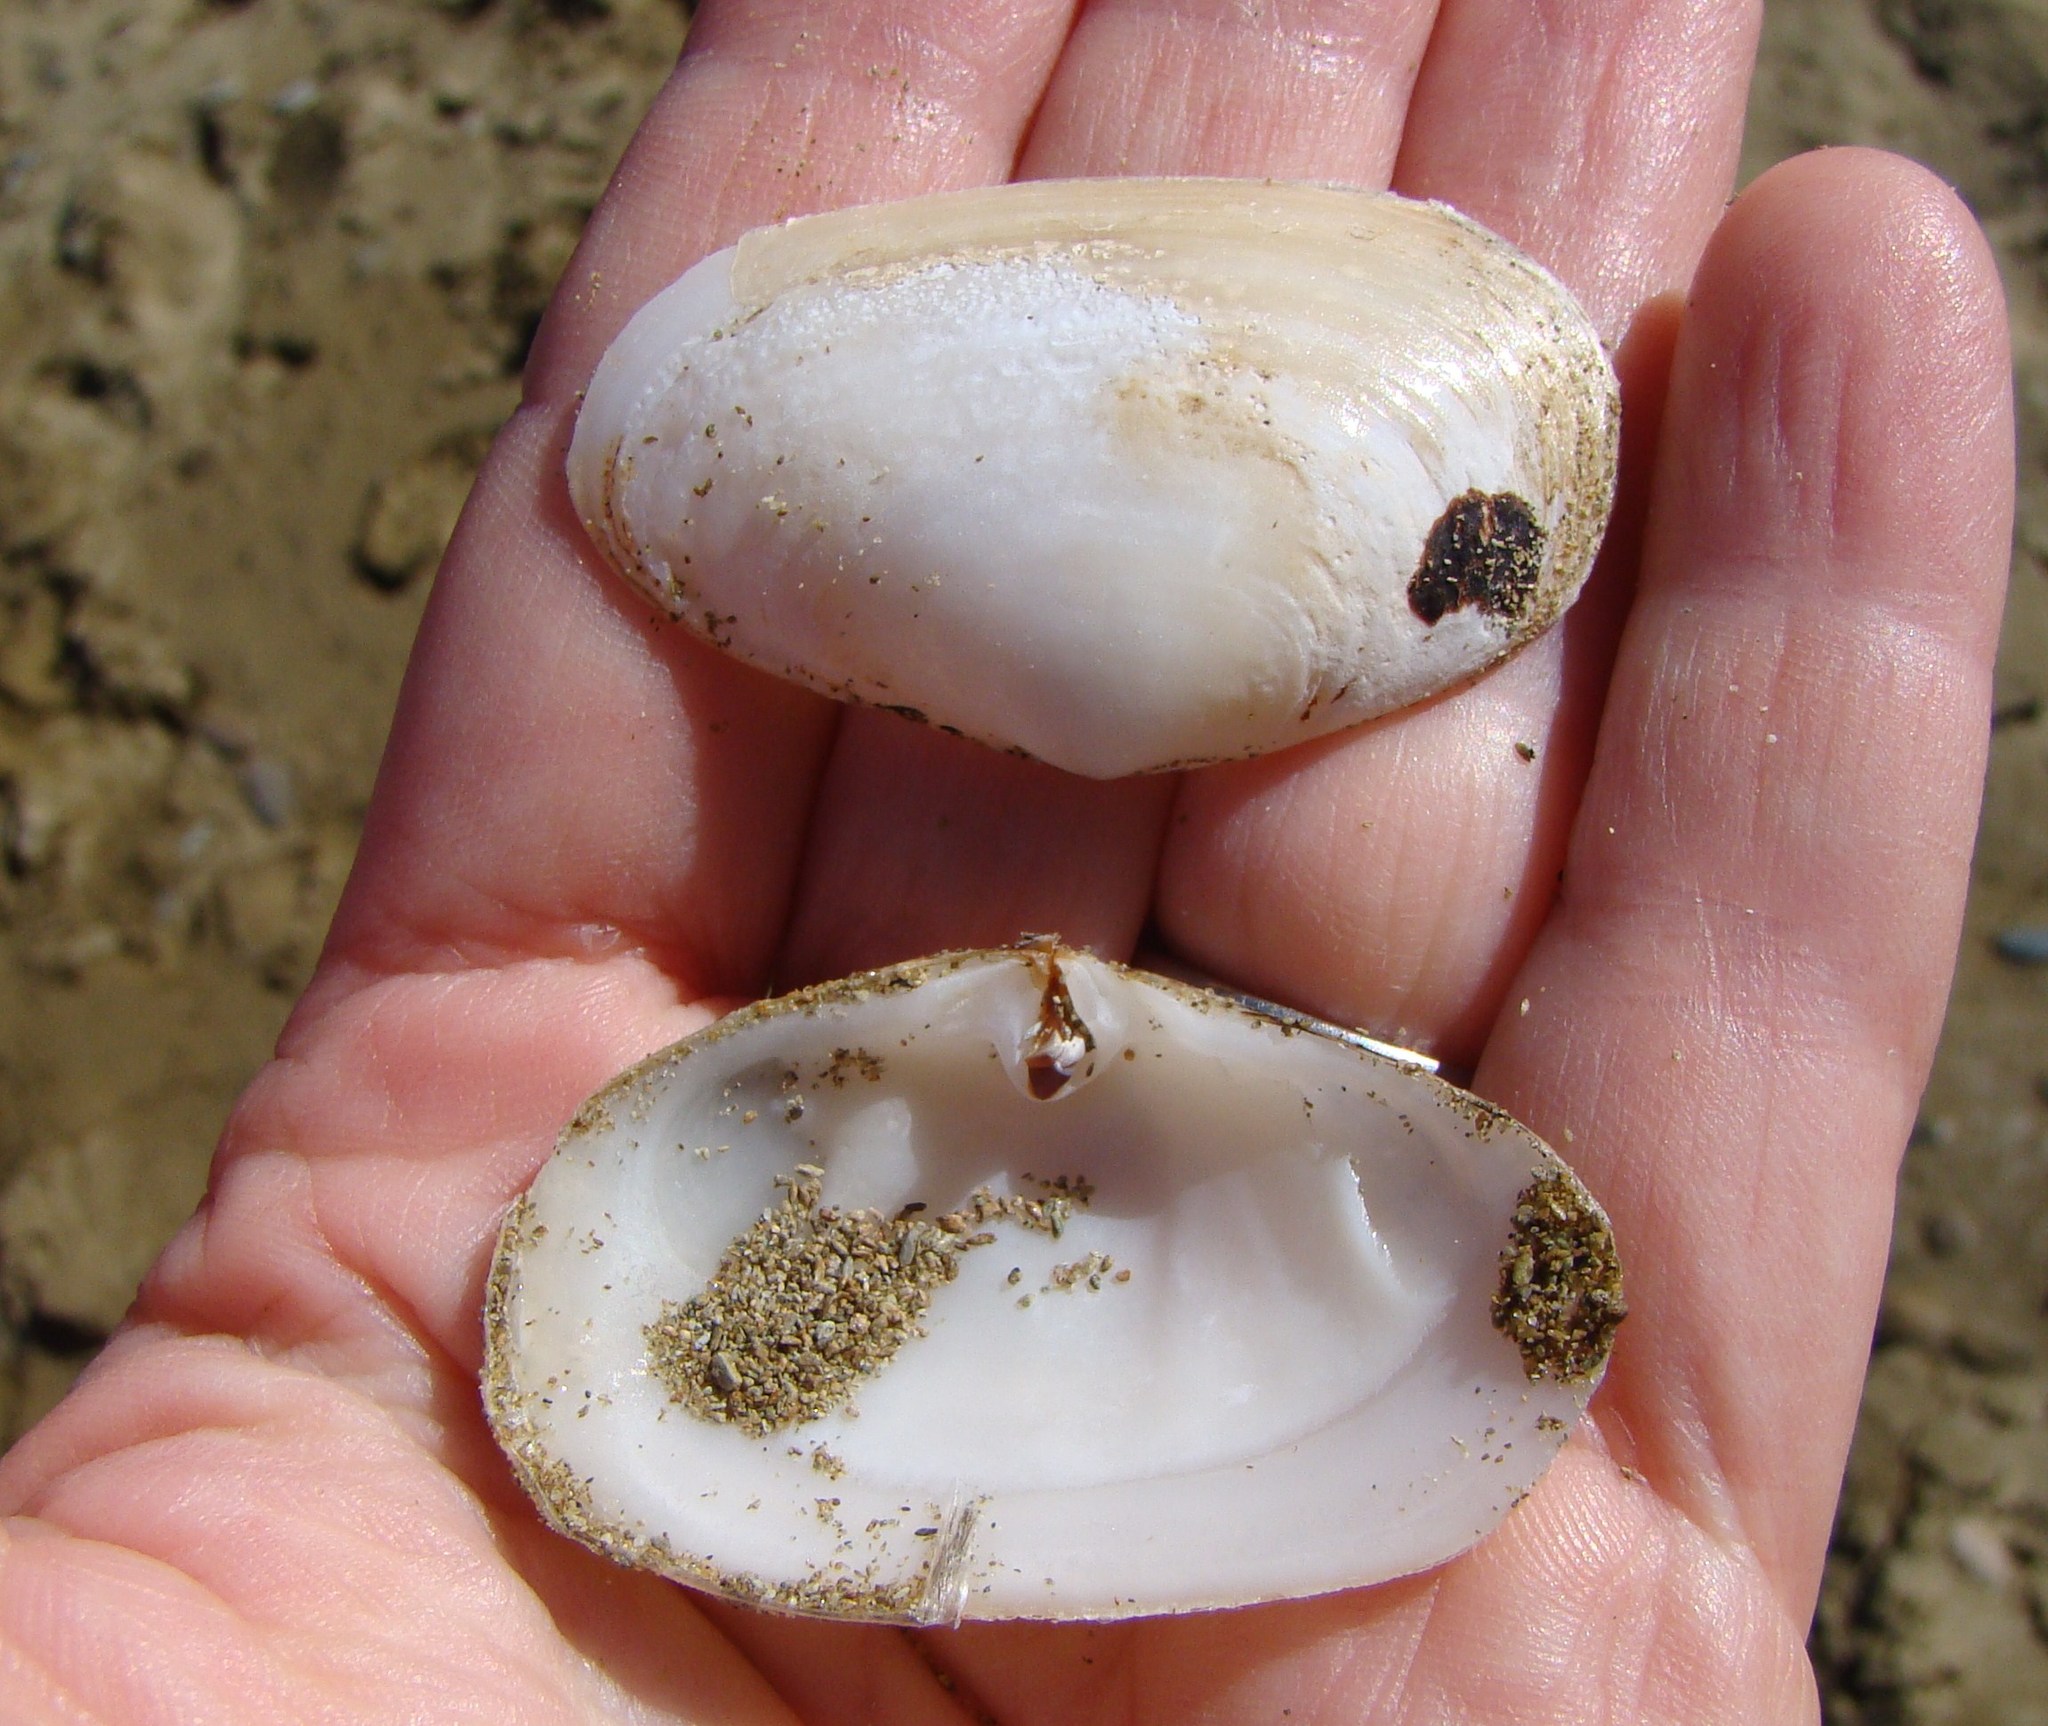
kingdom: Animalia
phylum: Mollusca
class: Bivalvia
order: Venerida
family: Mesodesmatidae
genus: Paphies
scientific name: Paphies australis
